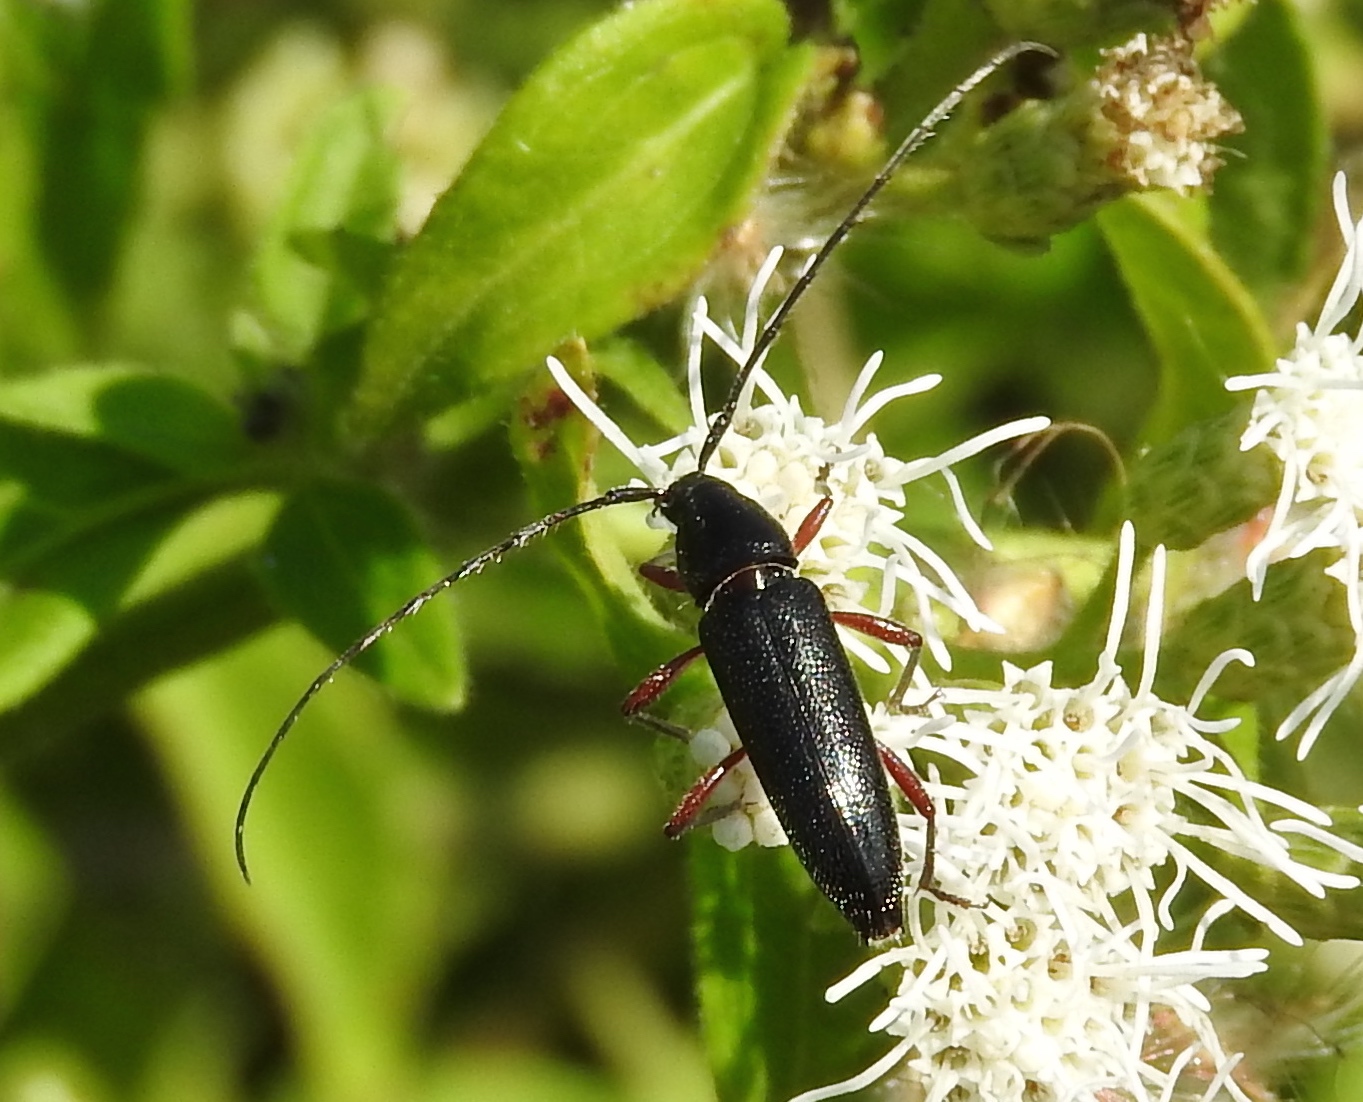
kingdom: Animalia
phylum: Arthropoda
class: Insecta
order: Coleoptera
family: Cerambycidae
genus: Stenosphenus
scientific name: Stenosphenus
